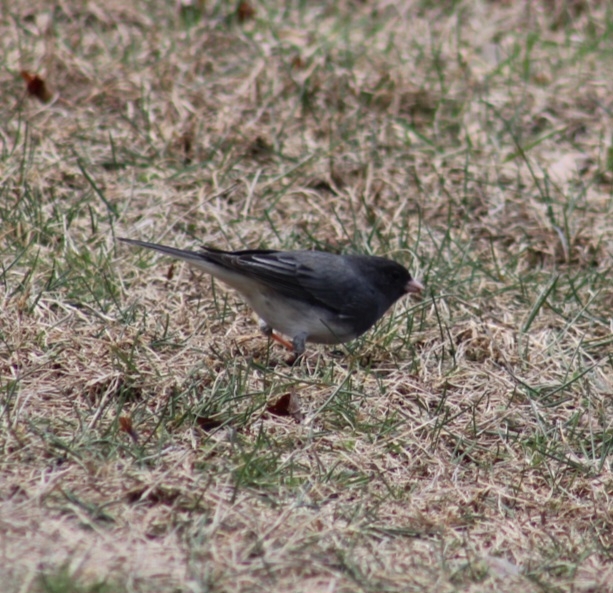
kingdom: Animalia
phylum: Chordata
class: Aves
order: Passeriformes
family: Passerellidae
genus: Junco
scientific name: Junco hyemalis
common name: Dark-eyed junco
